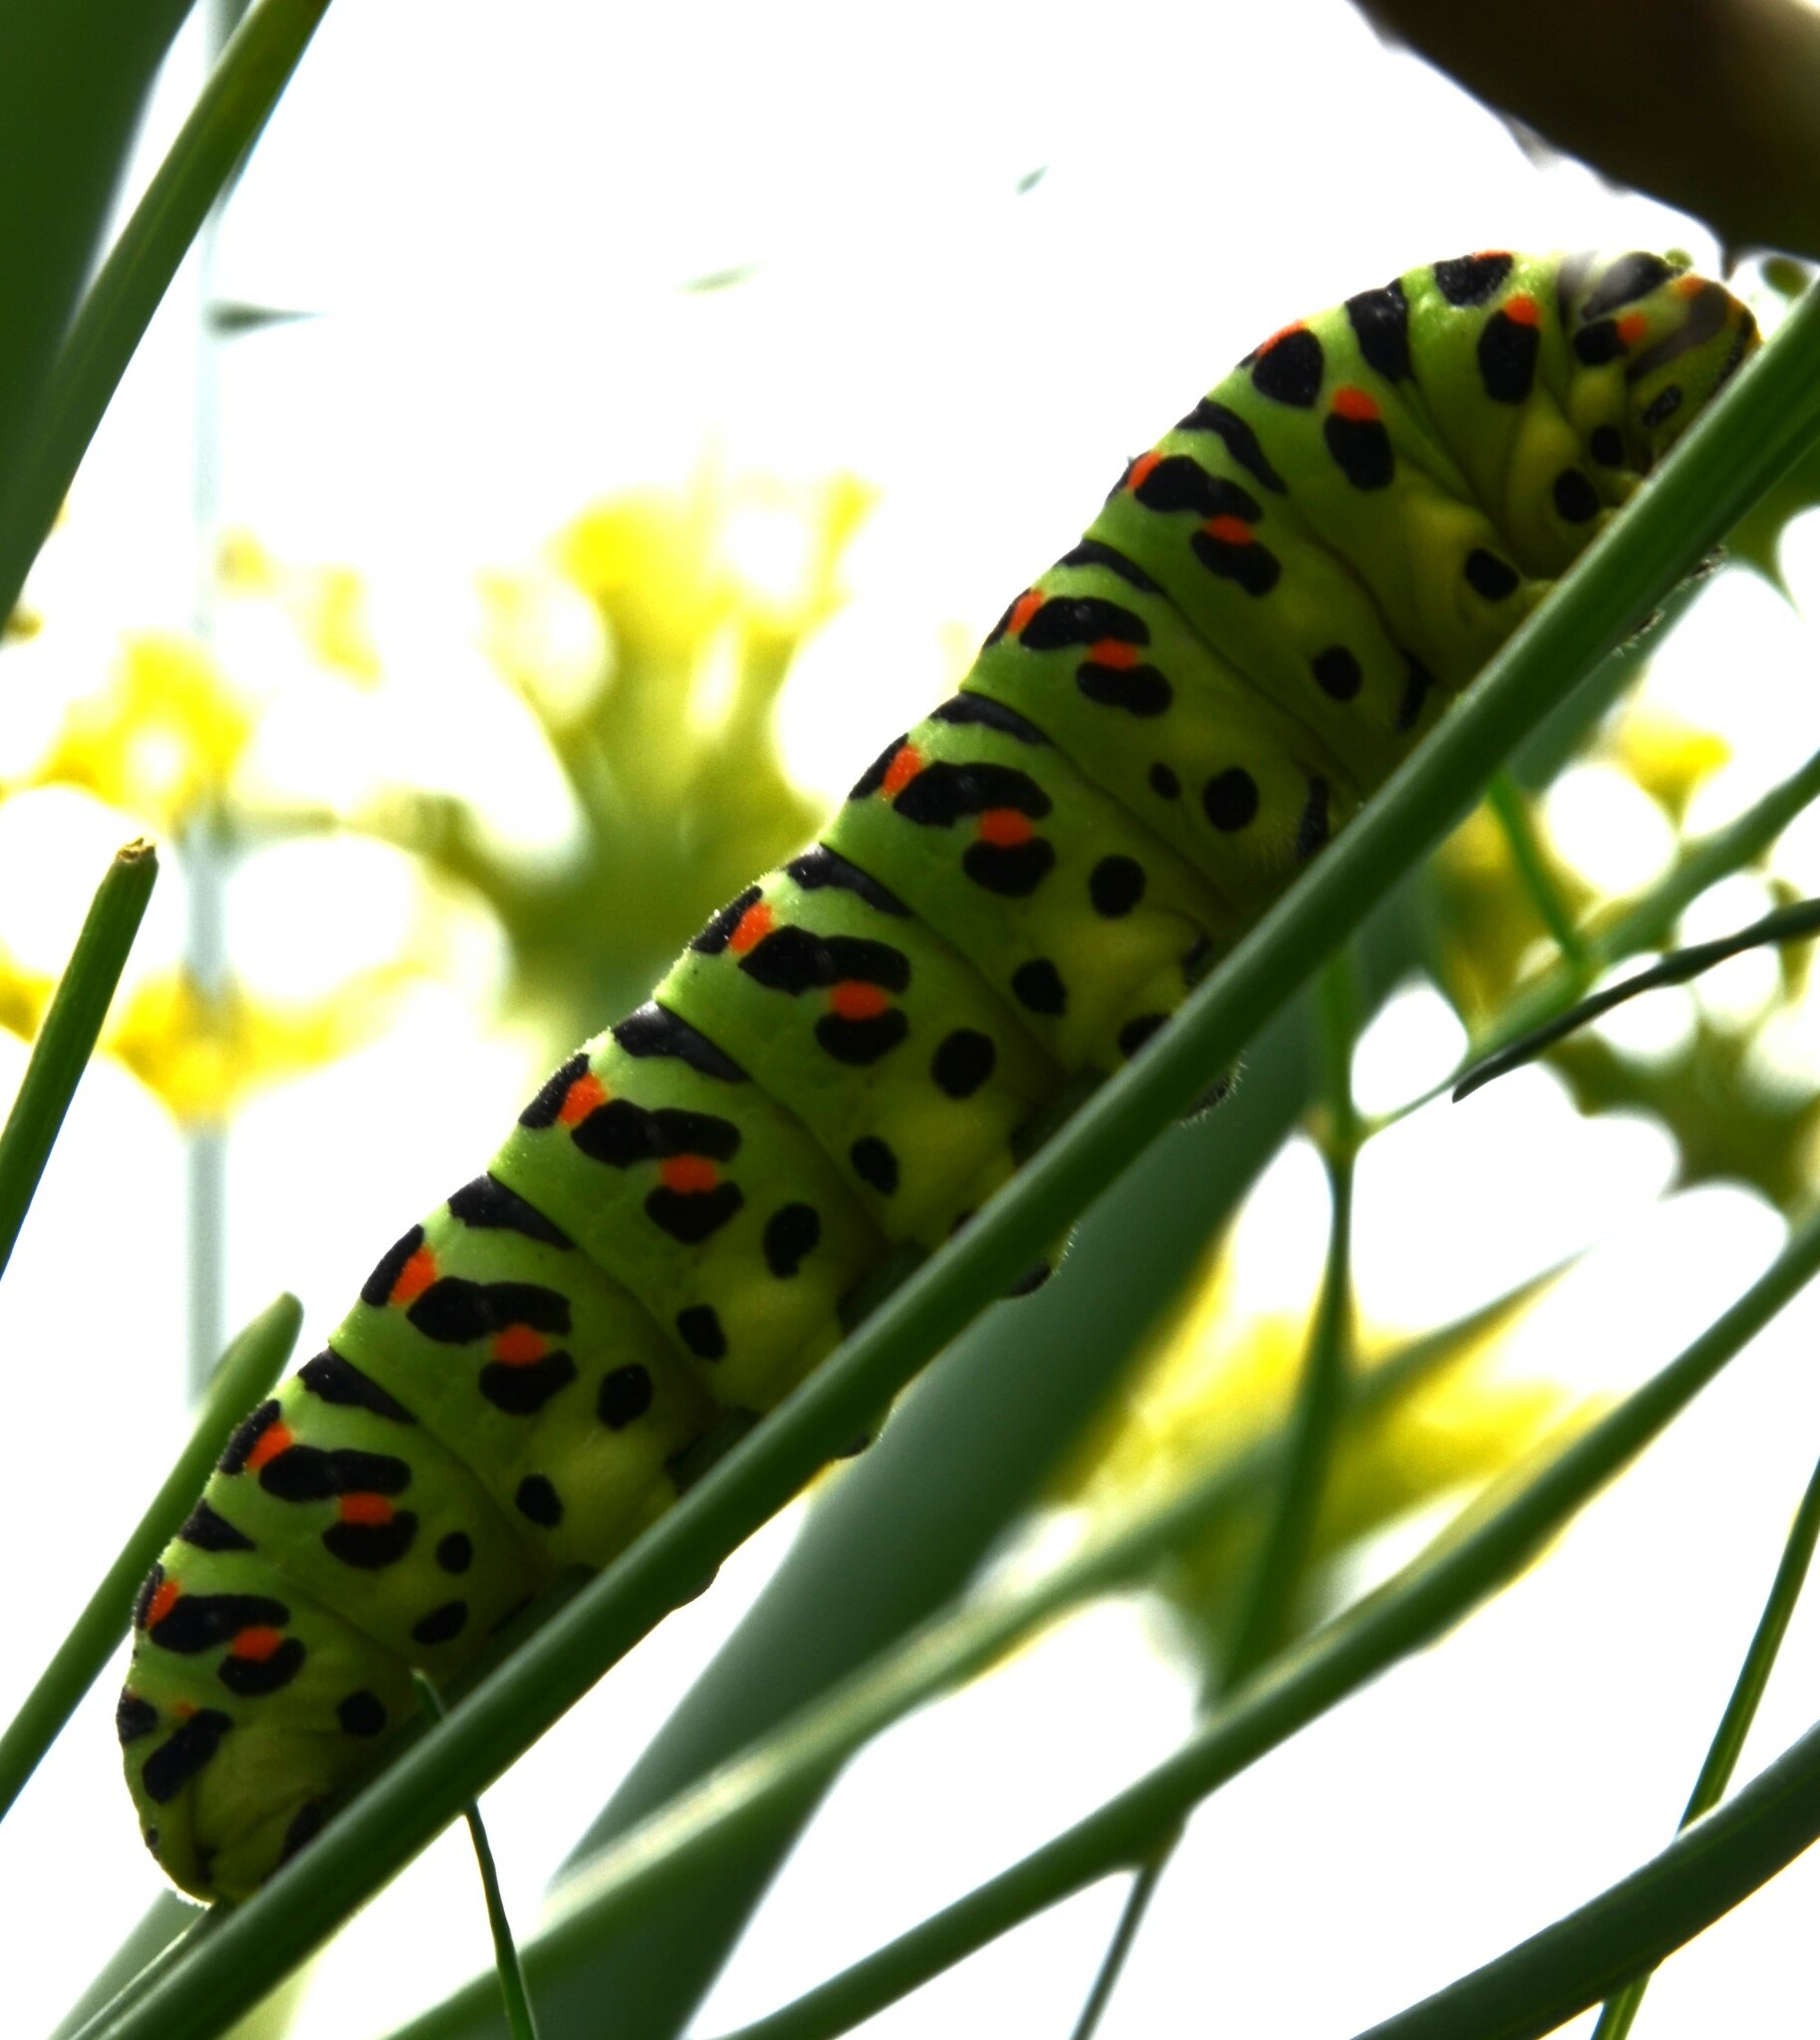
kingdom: Animalia
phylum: Arthropoda
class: Insecta
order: Lepidoptera
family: Papilionidae
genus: Papilio
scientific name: Papilio machaon
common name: Swallowtail
